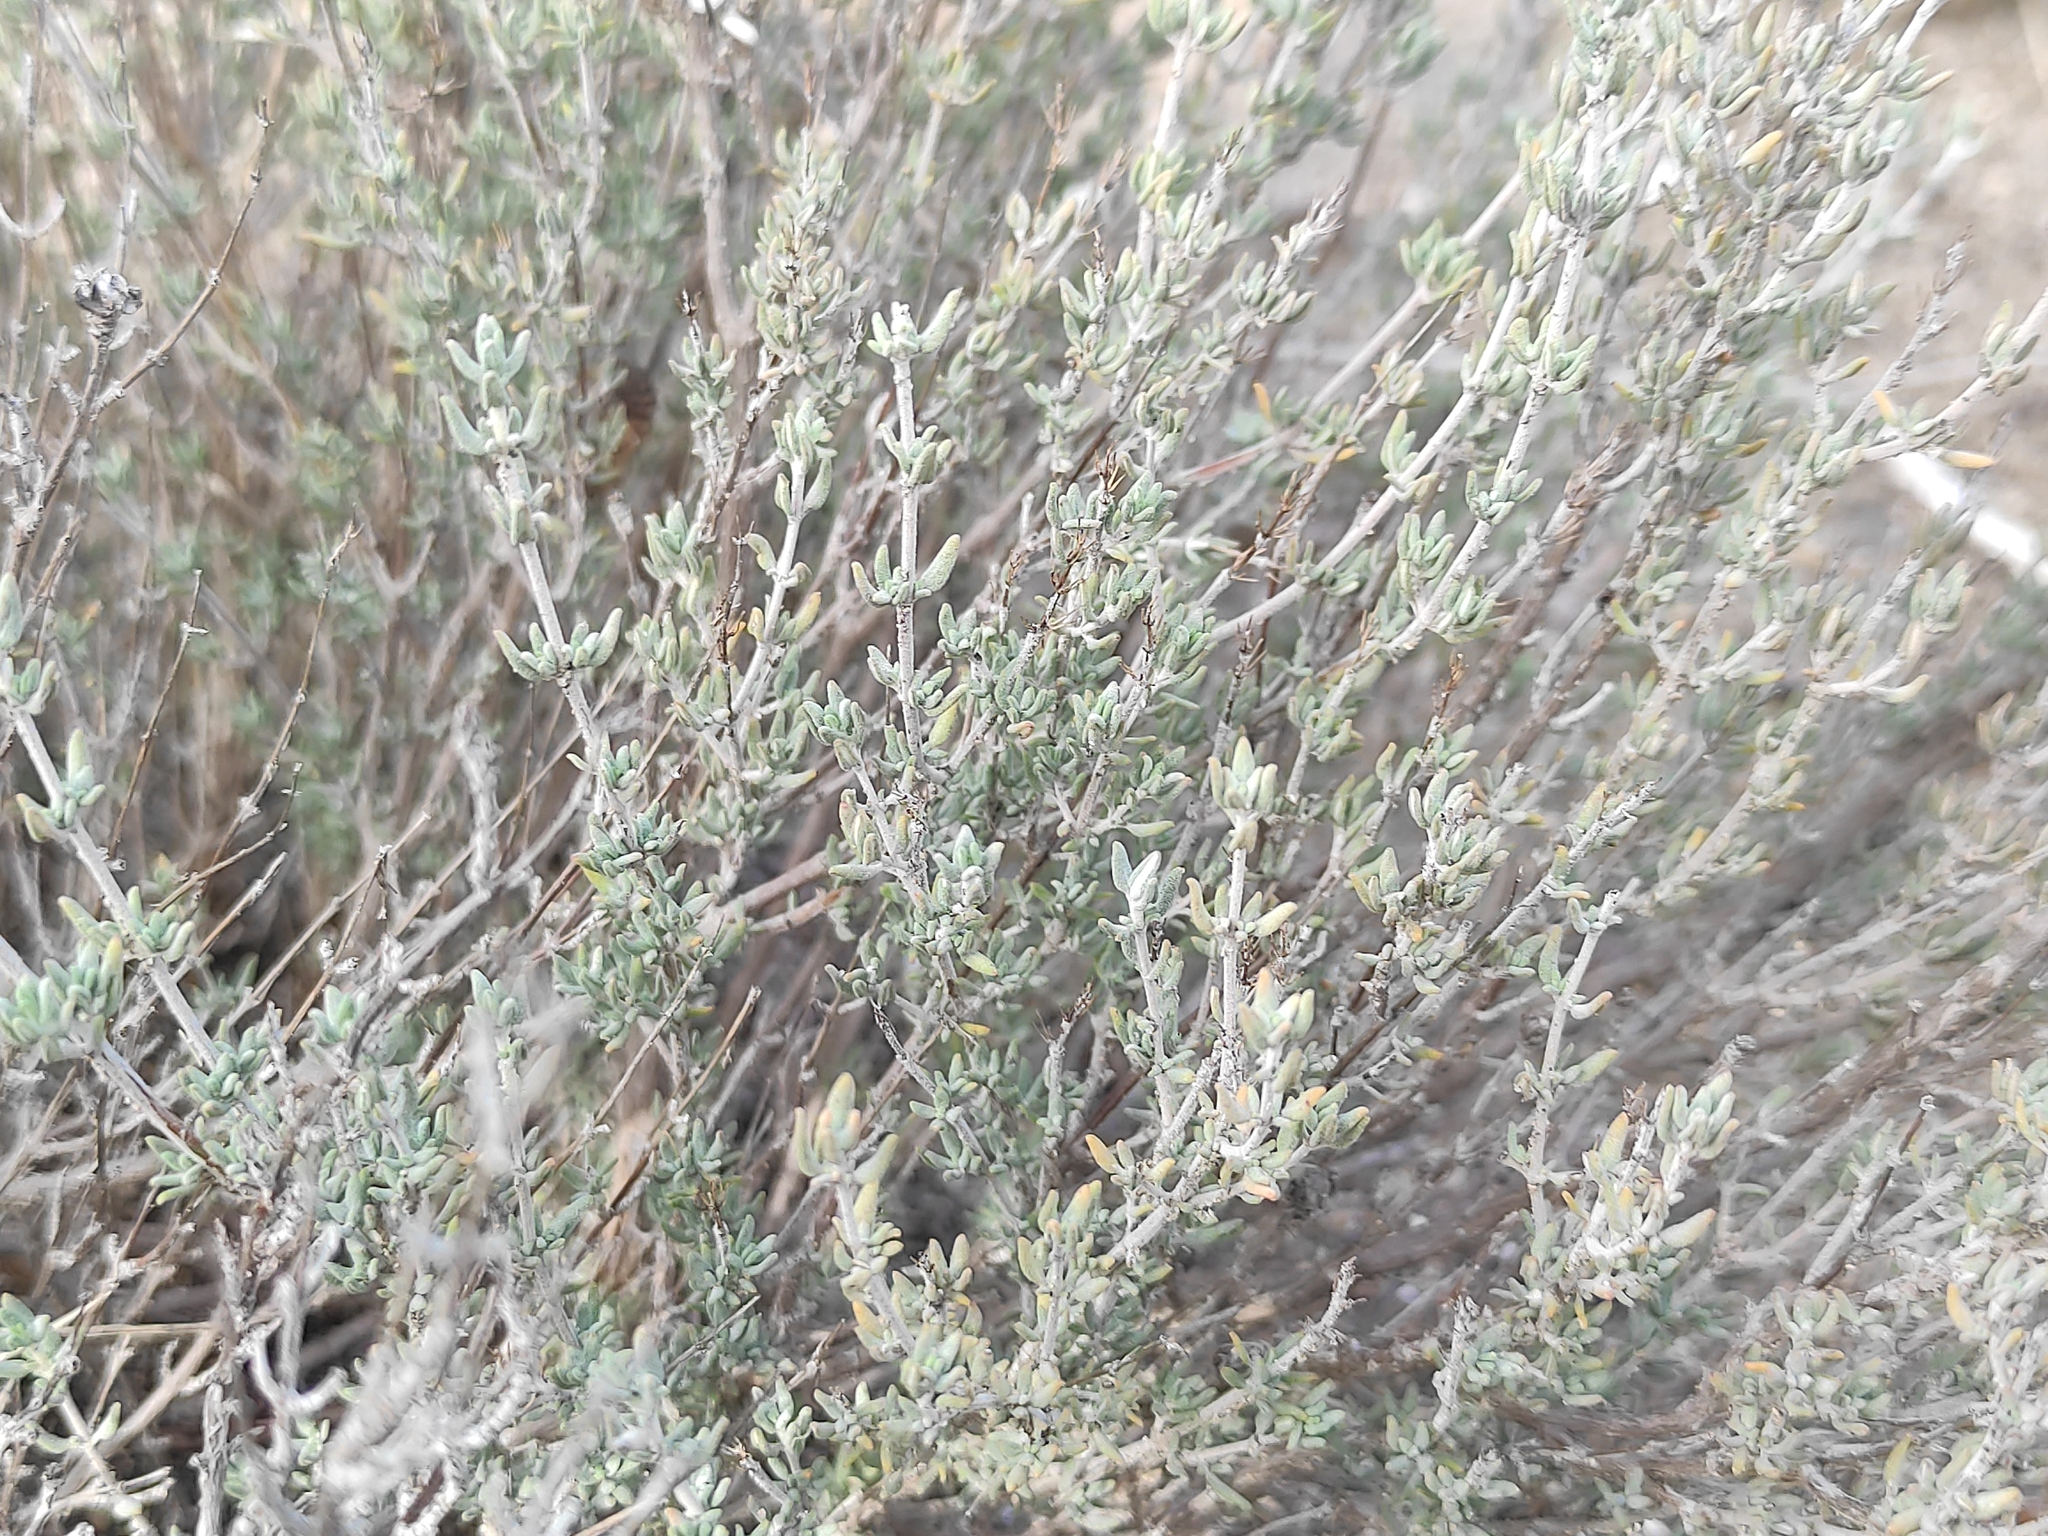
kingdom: Plantae
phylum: Tracheophyta
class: Magnoliopsida
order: Lamiales
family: Lamiaceae
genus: Thymus
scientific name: Thymus vulgaris
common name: Garden thyme
